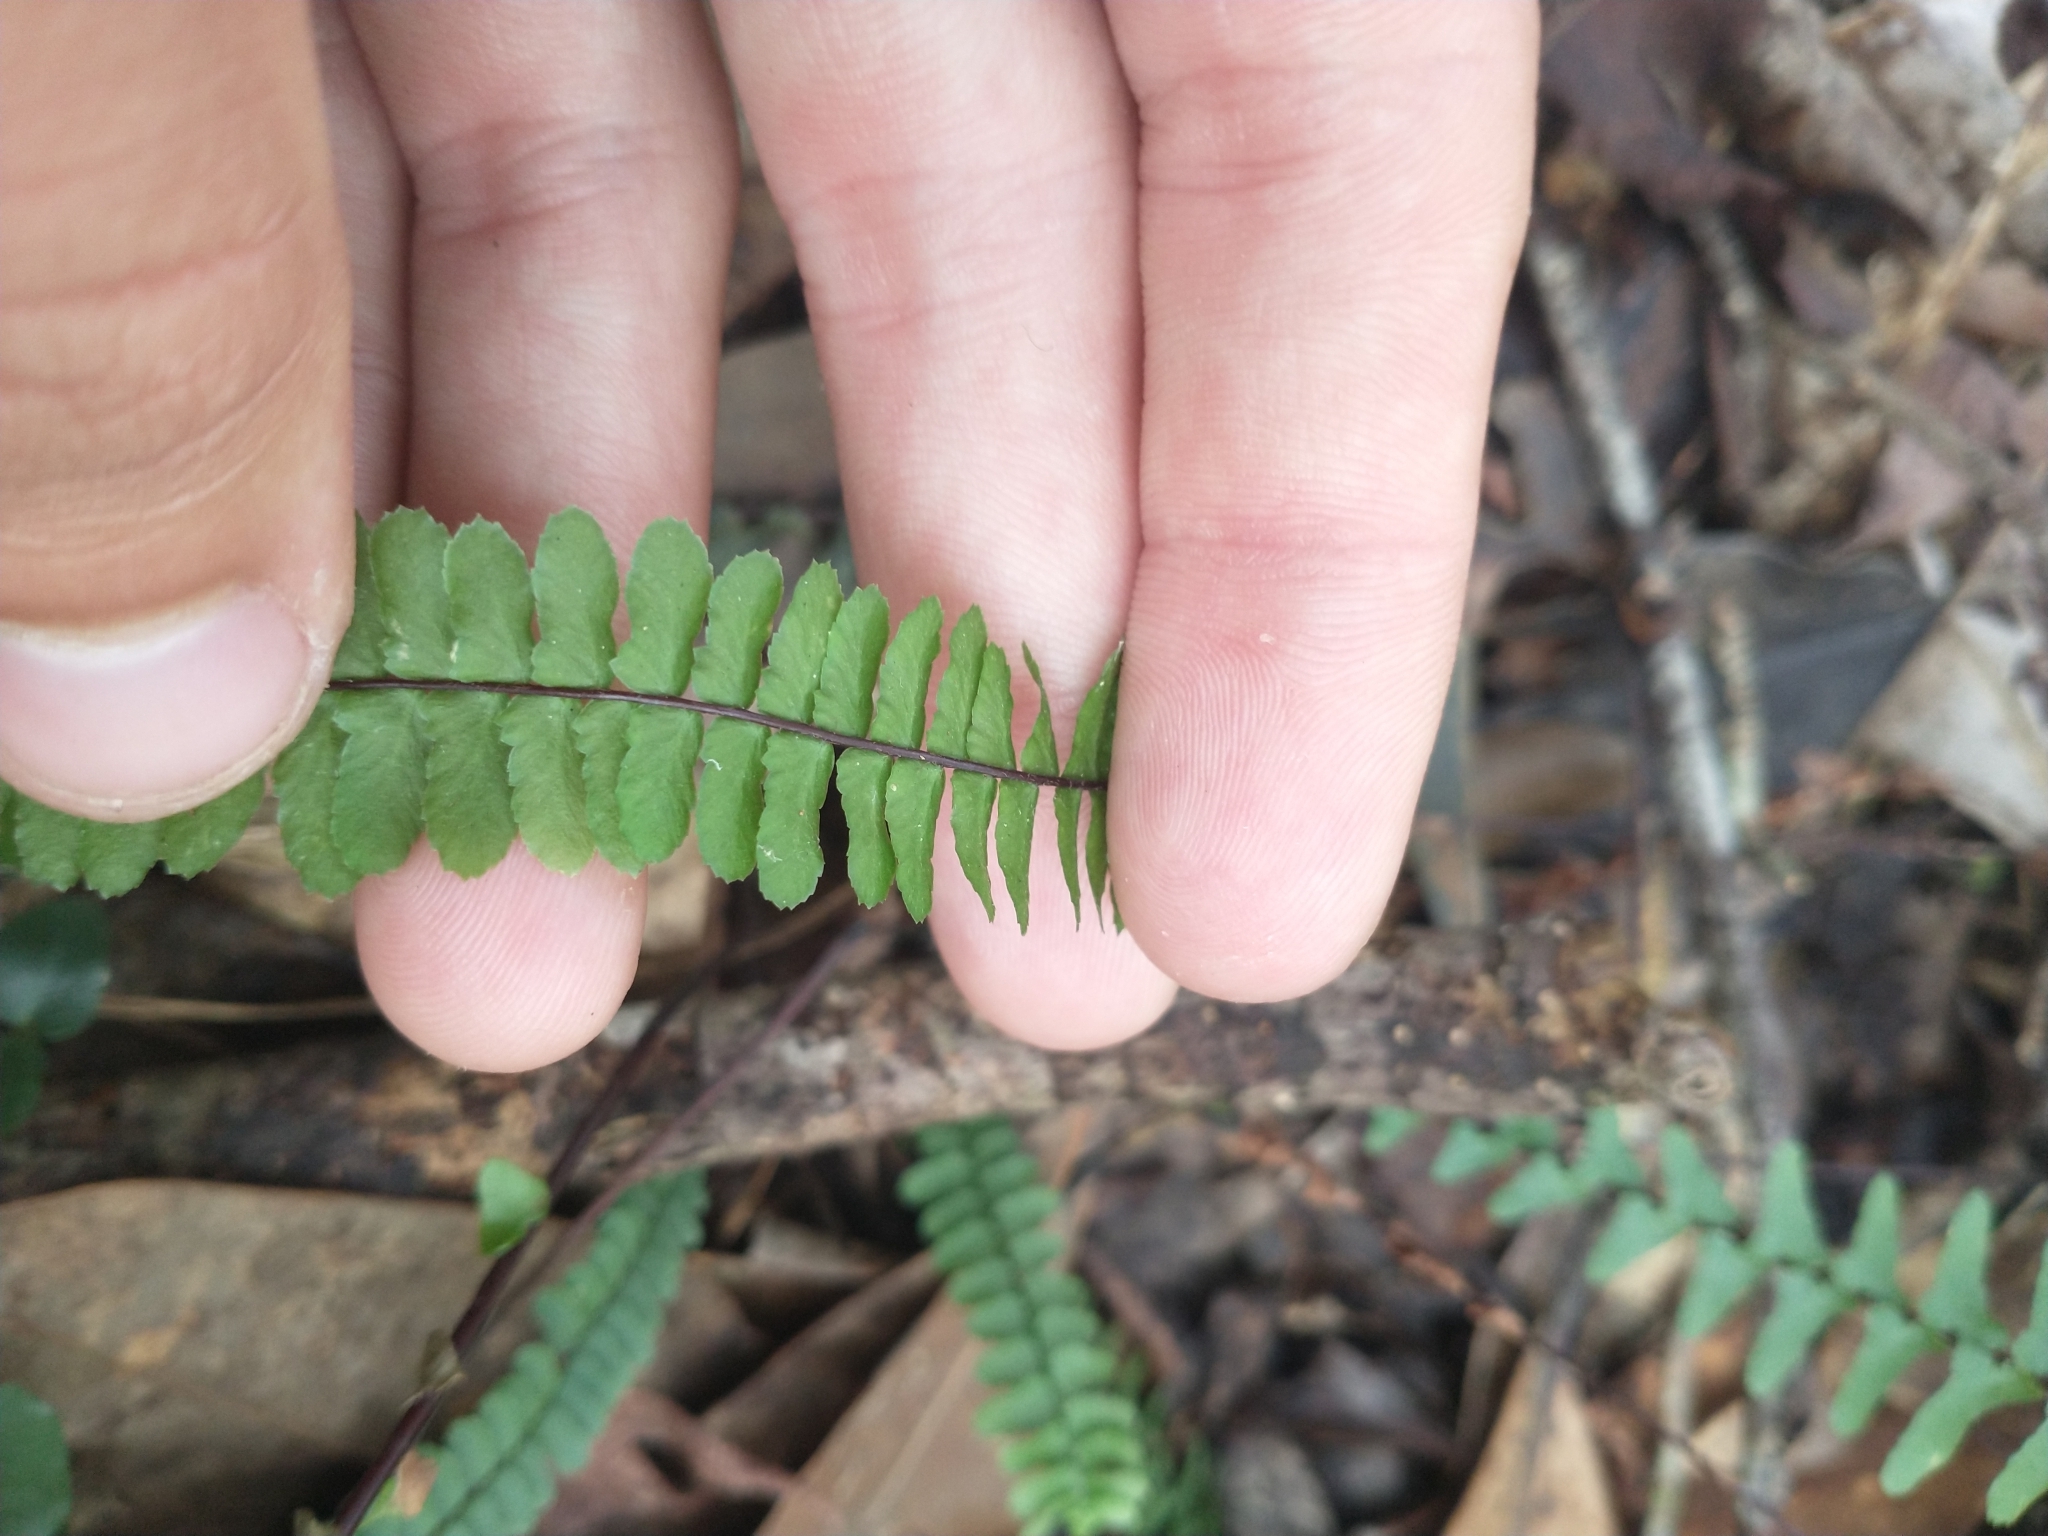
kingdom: Plantae
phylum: Tracheophyta
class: Polypodiopsida
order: Polypodiales
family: Aspleniaceae
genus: Asplenium
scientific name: Asplenium platyneuron
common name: Ebony spleenwort
